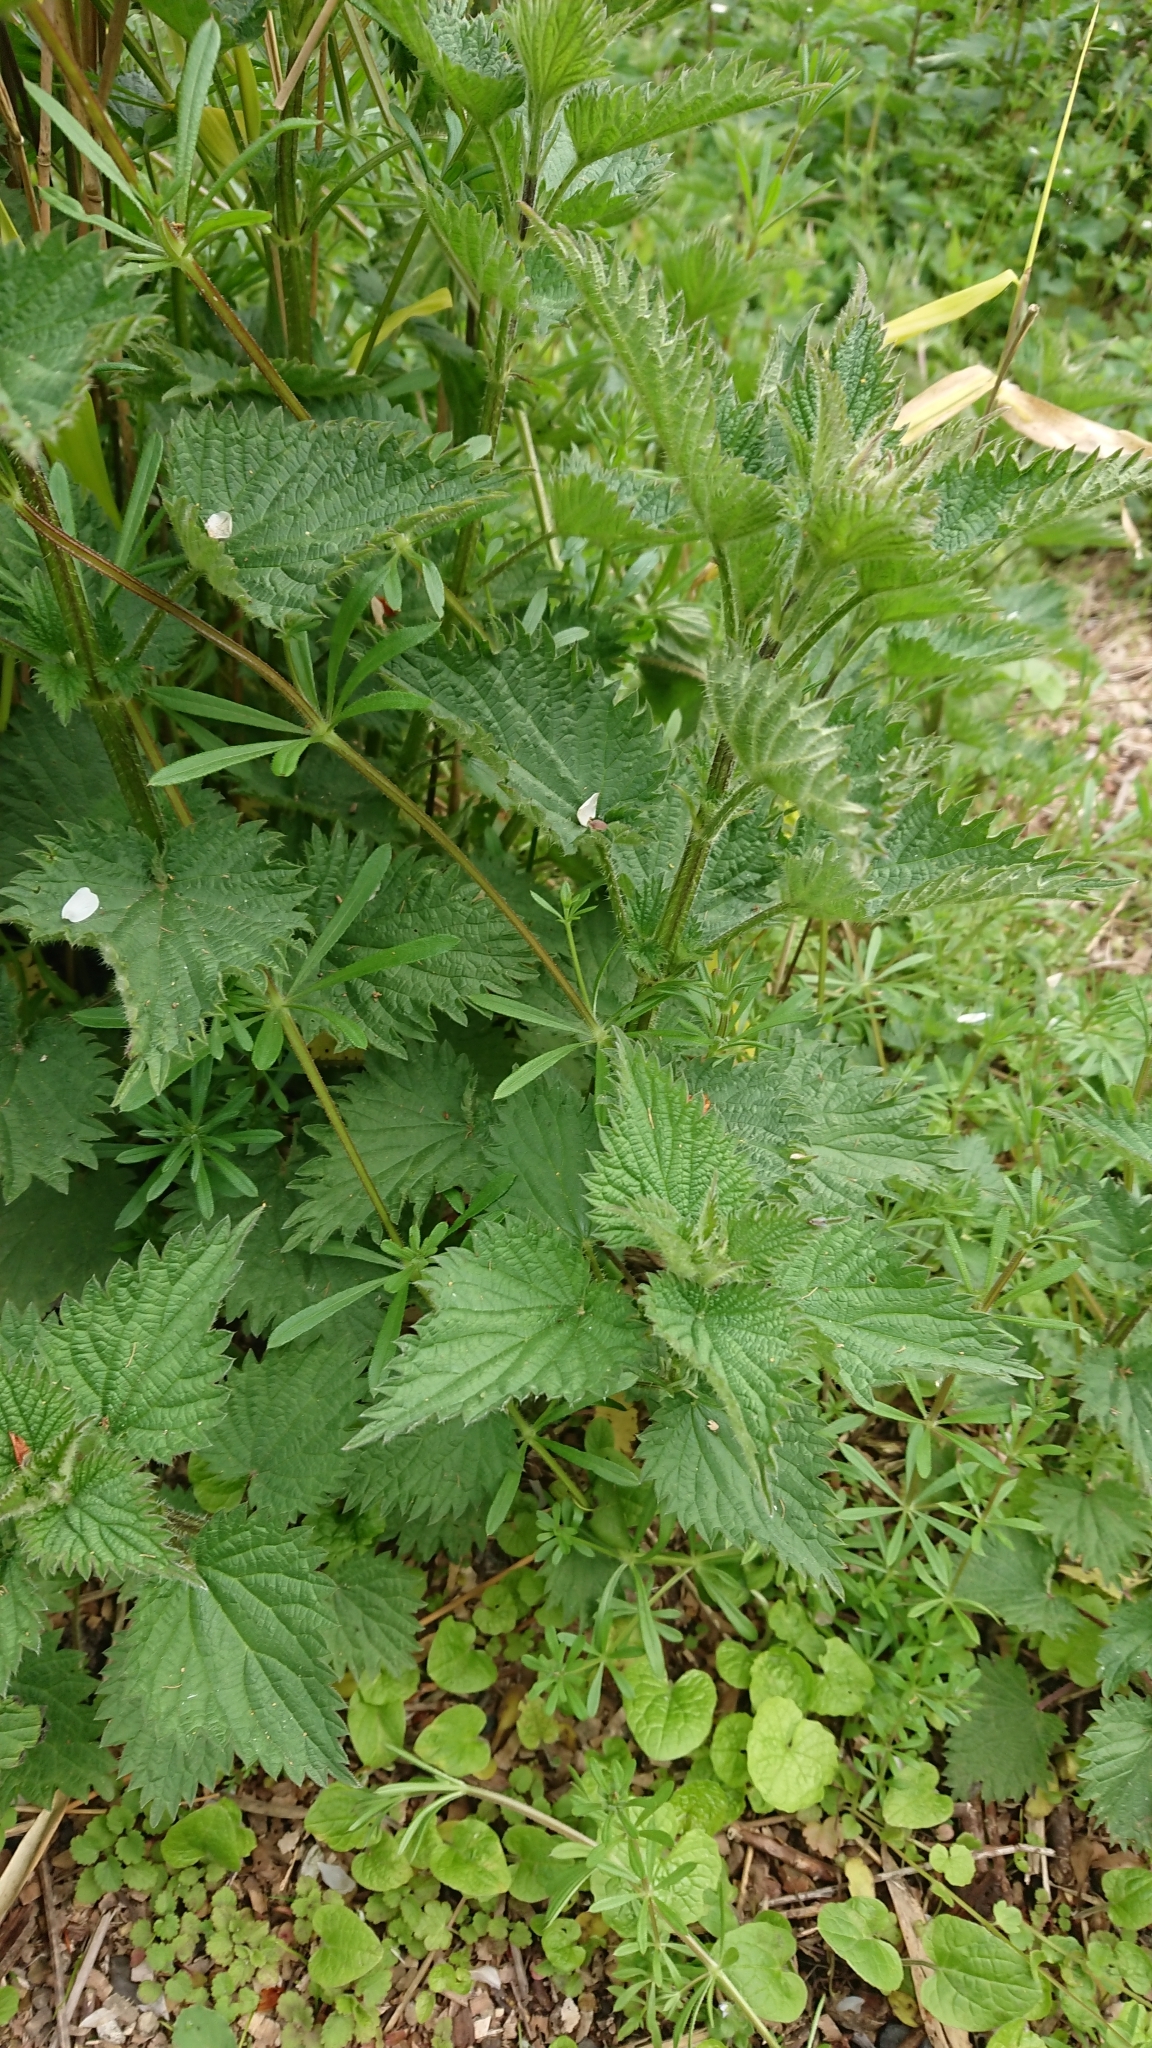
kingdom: Plantae
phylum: Tracheophyta
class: Magnoliopsida
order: Gentianales
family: Rubiaceae
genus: Galium
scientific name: Galium aparine
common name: Cleavers
